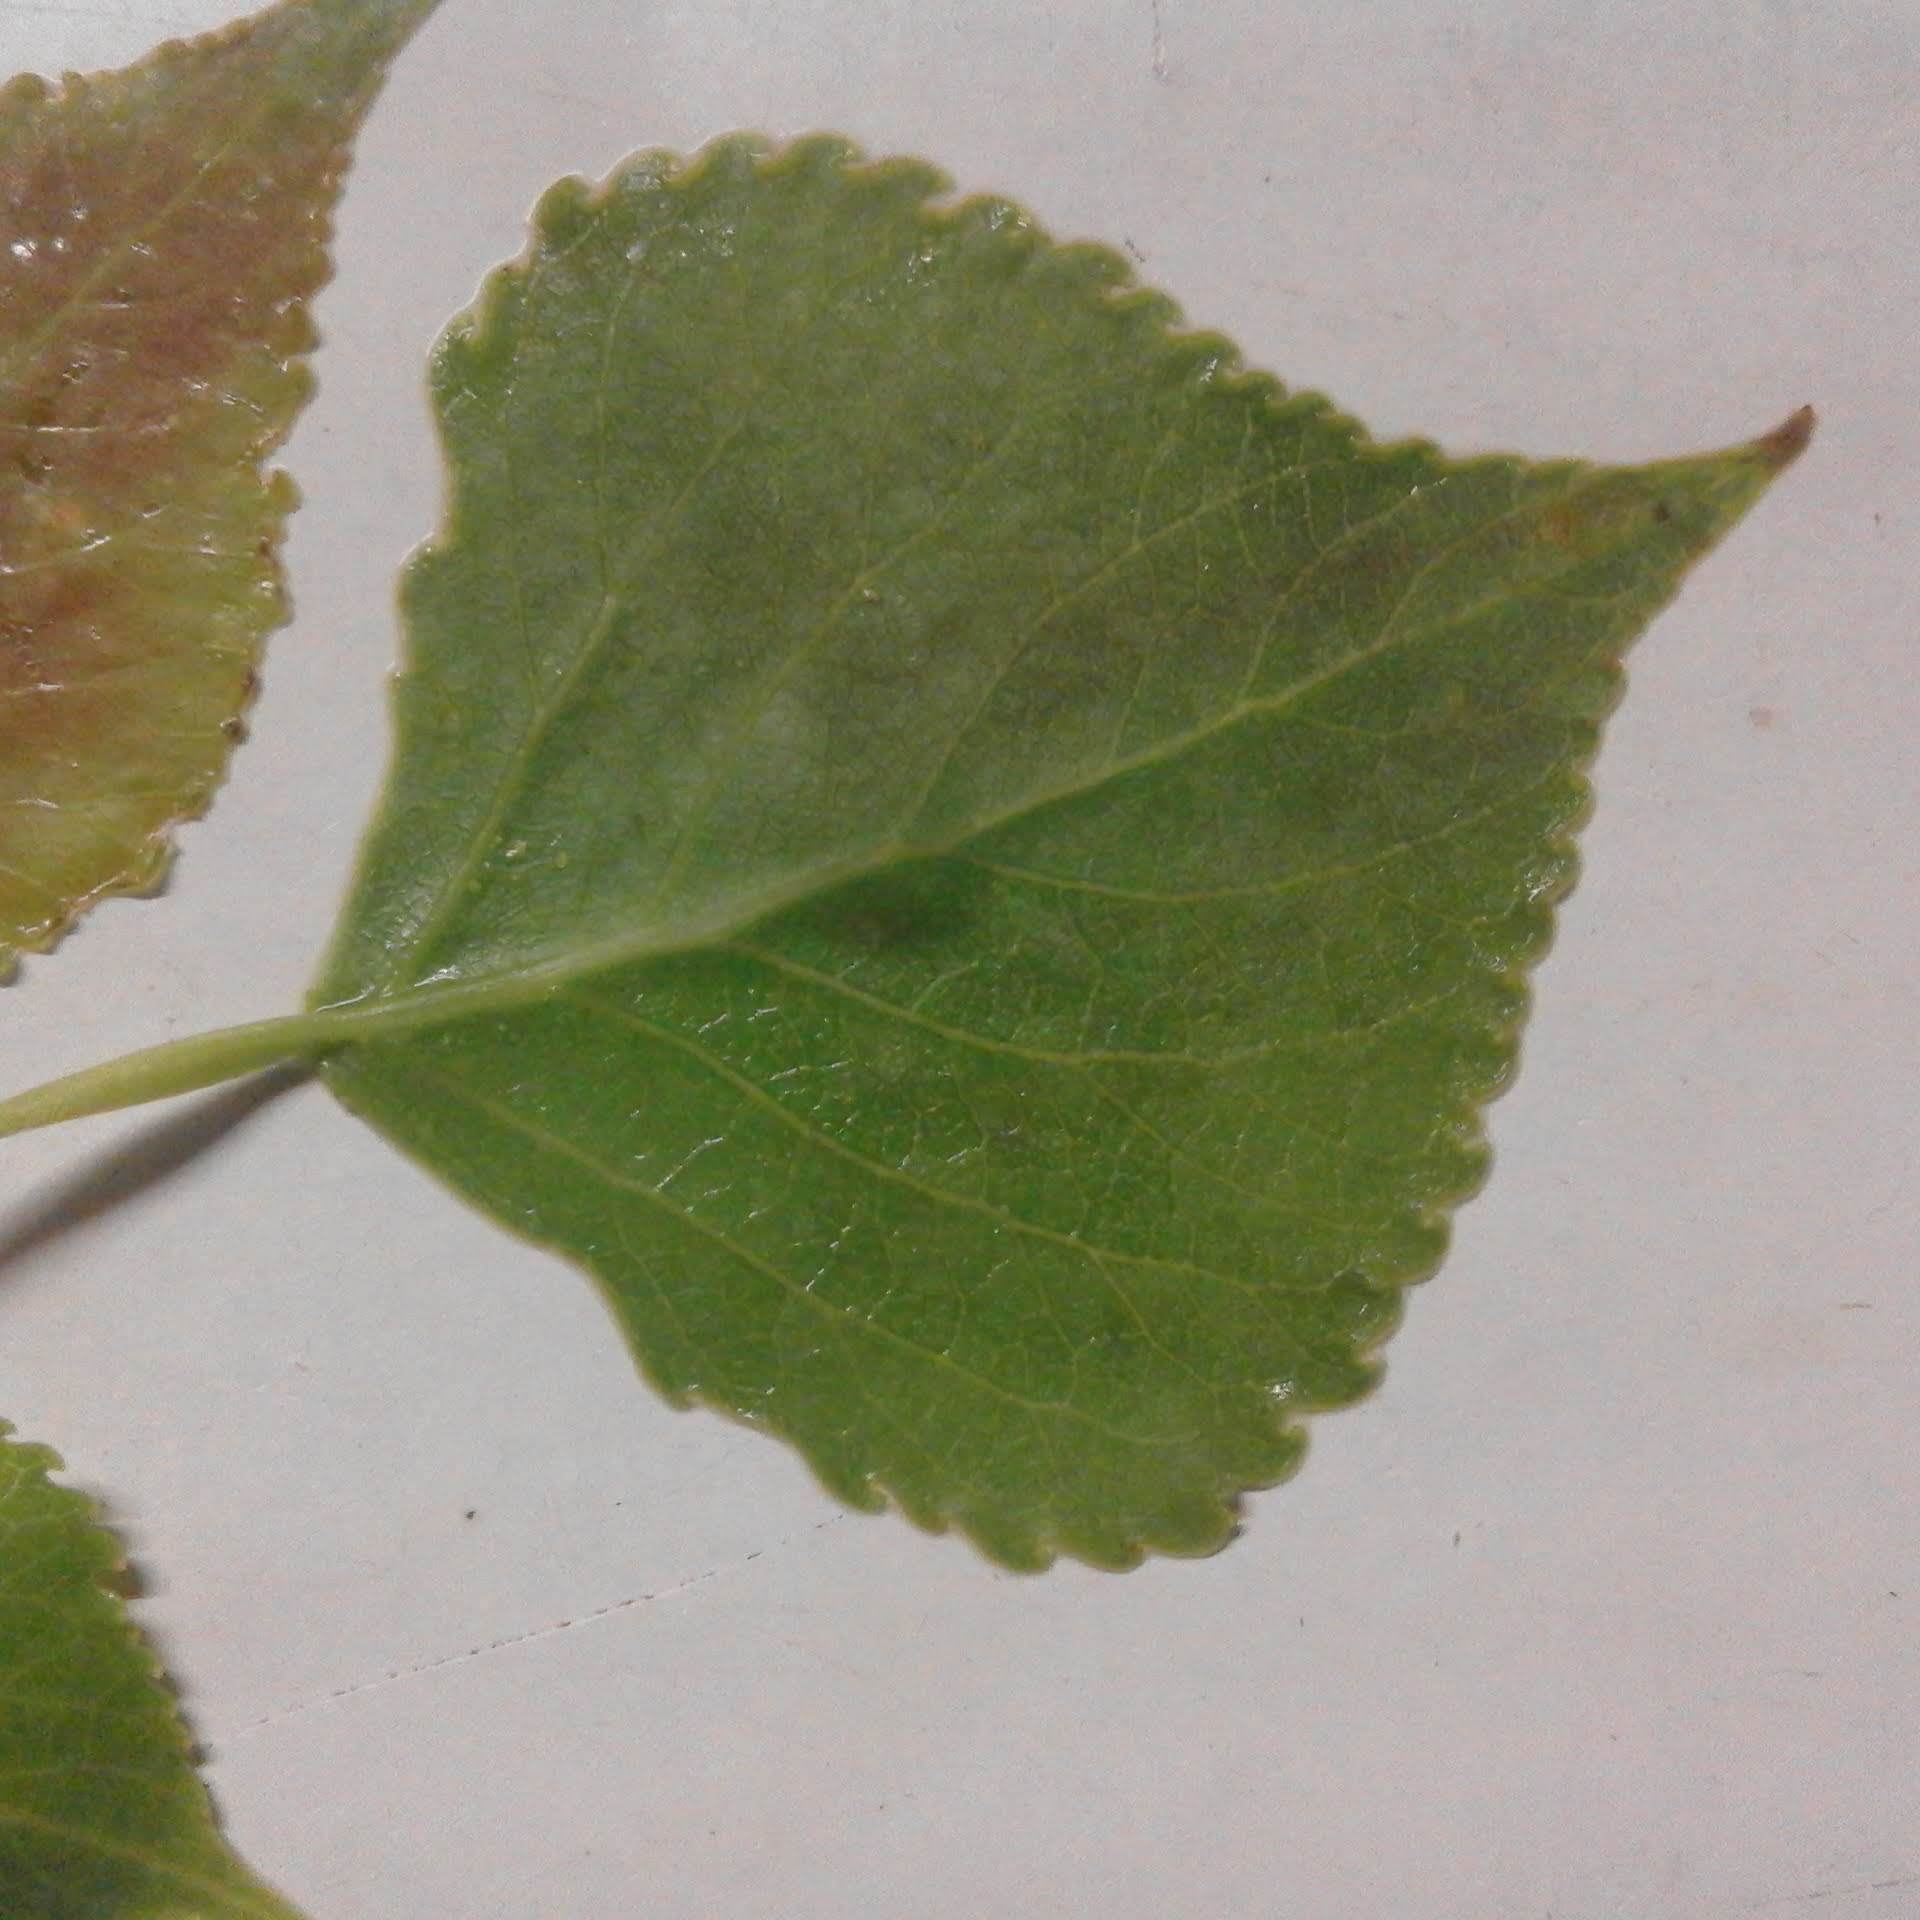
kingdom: Plantae
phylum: Tracheophyta
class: Magnoliopsida
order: Malpighiales
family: Salicaceae
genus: Populus
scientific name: Populus canadensis
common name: Carolina poplar
